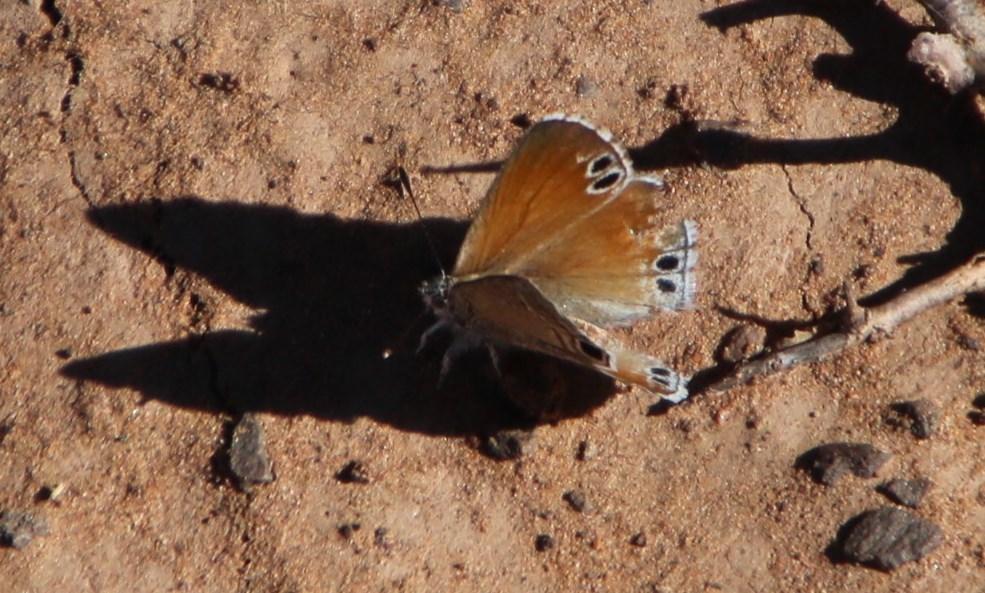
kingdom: Animalia
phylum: Arthropoda
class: Insecta
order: Lepidoptera
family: Lycaenidae
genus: Leptomyrina
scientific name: Leptomyrina lara
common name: Cape black-eye
